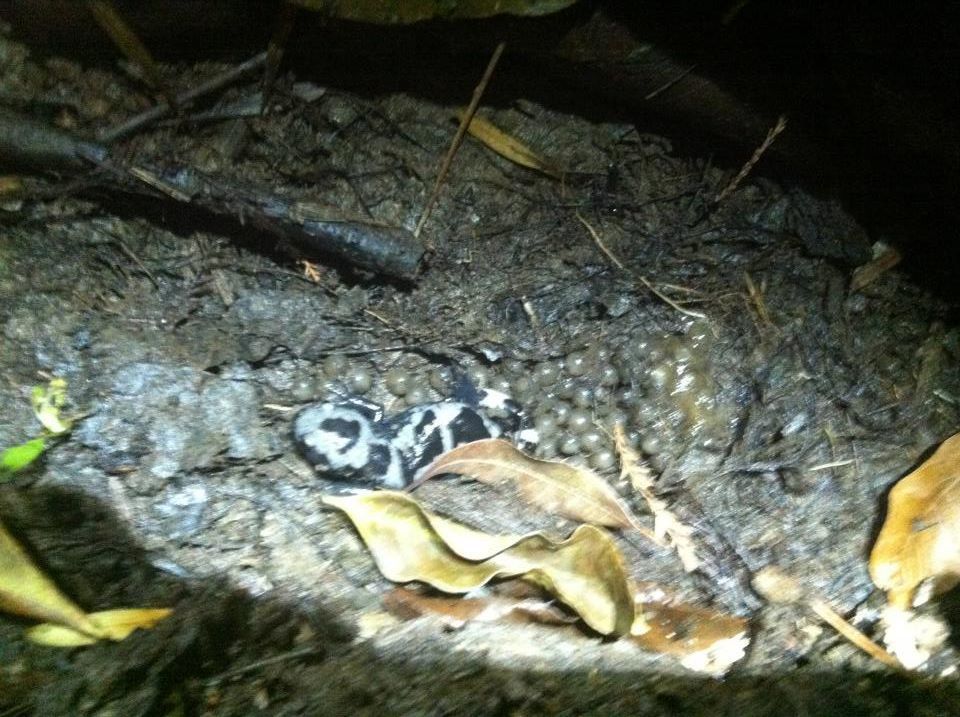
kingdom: Animalia
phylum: Chordata
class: Amphibia
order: Caudata
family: Ambystomatidae
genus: Ambystoma
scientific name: Ambystoma opacum
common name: Marbled salamander
